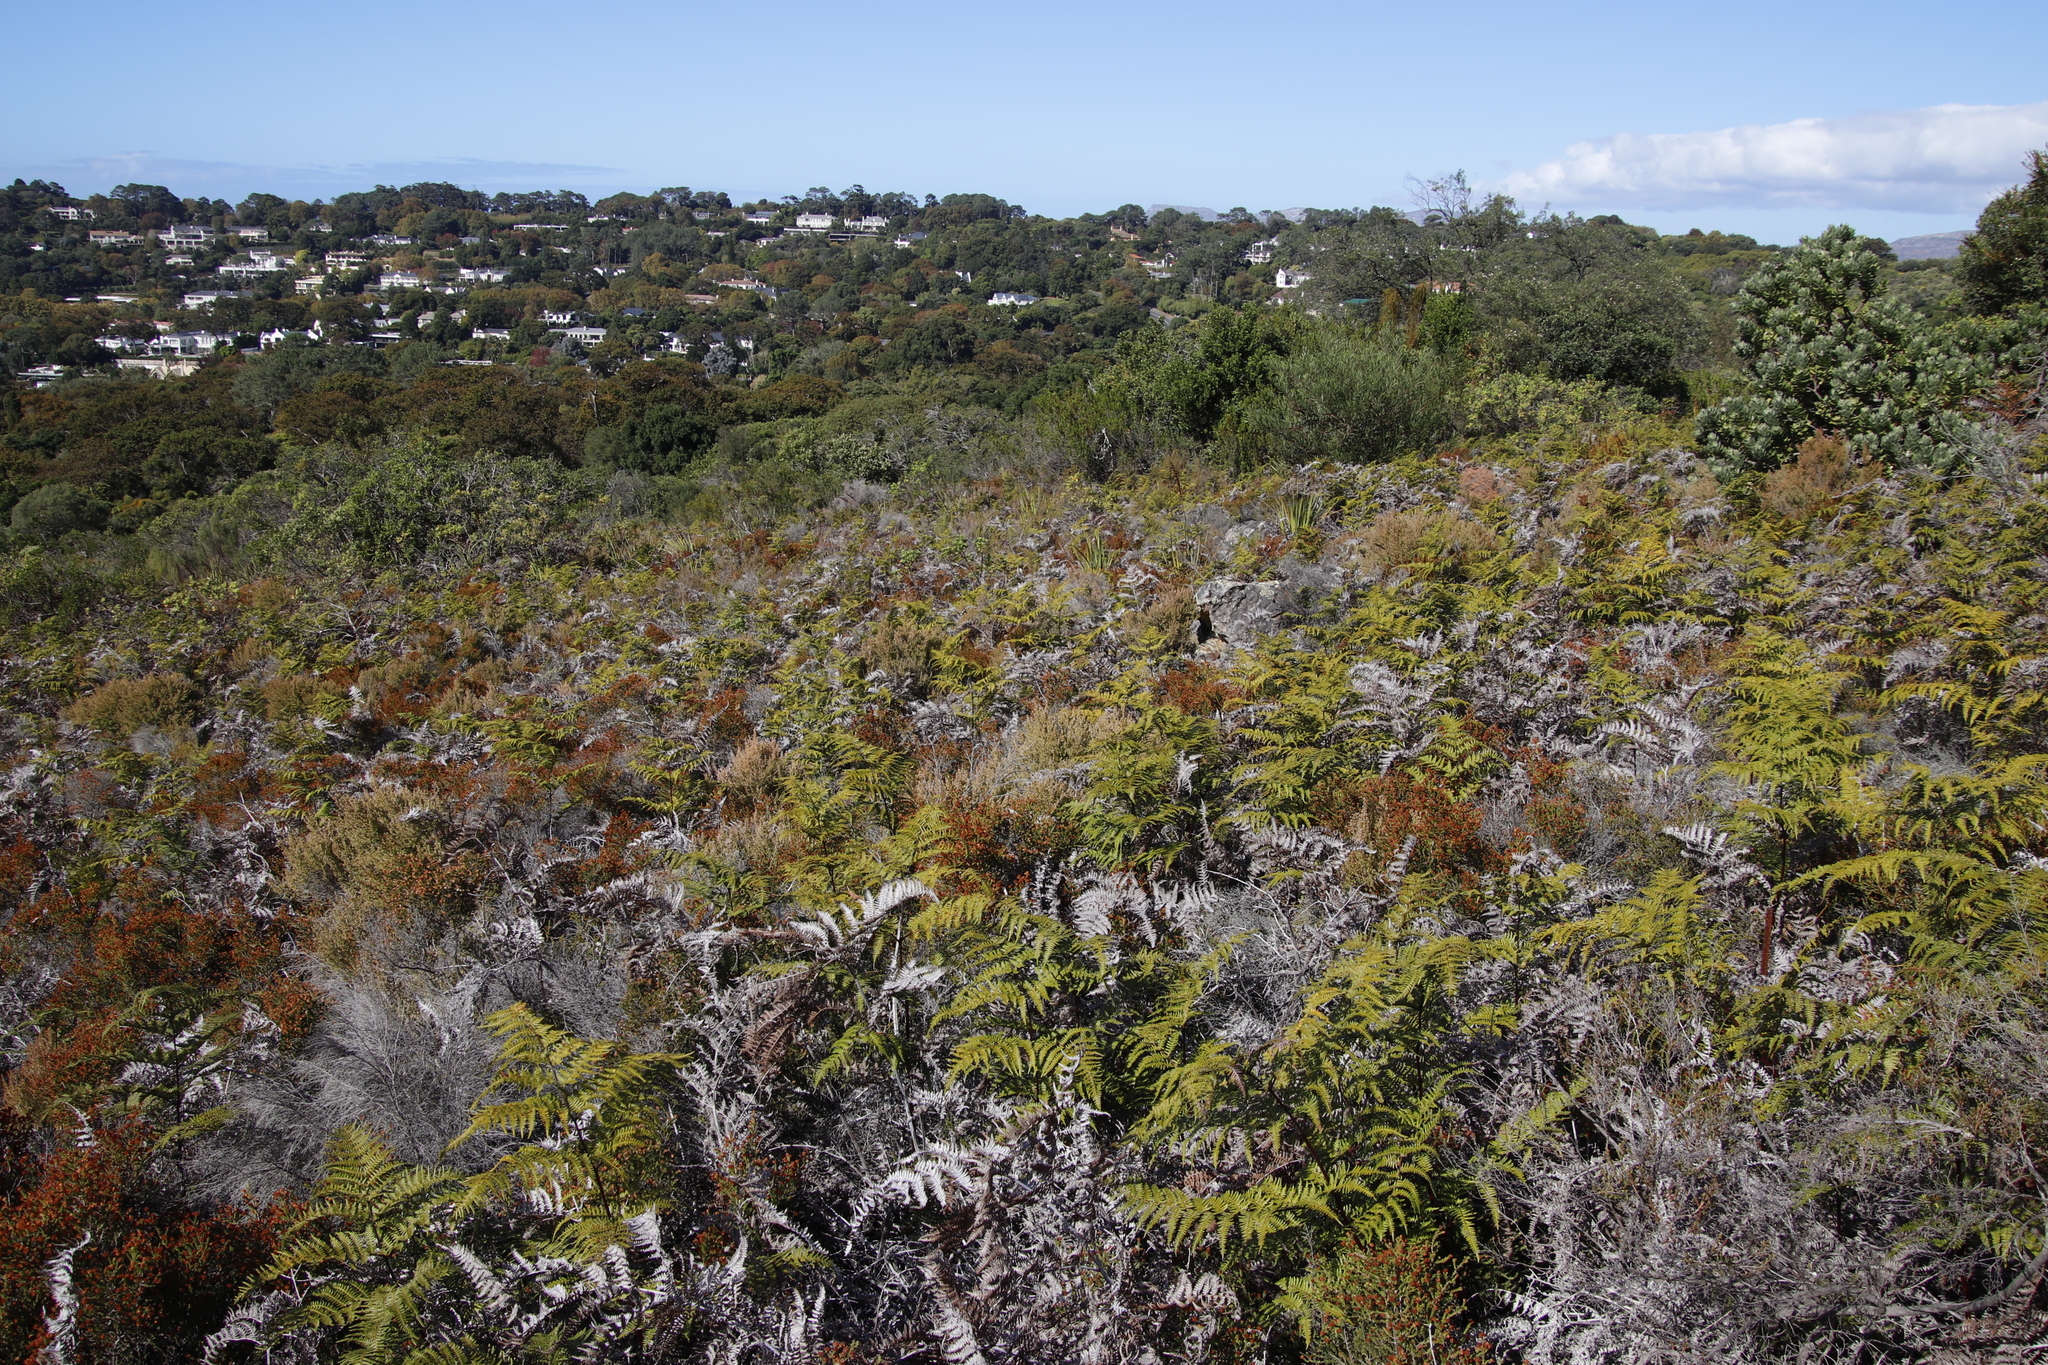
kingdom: Plantae
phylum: Tracheophyta
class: Polypodiopsida
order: Polypodiales
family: Dennstaedtiaceae
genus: Pteridium
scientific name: Pteridium aquilinum
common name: Bracken
